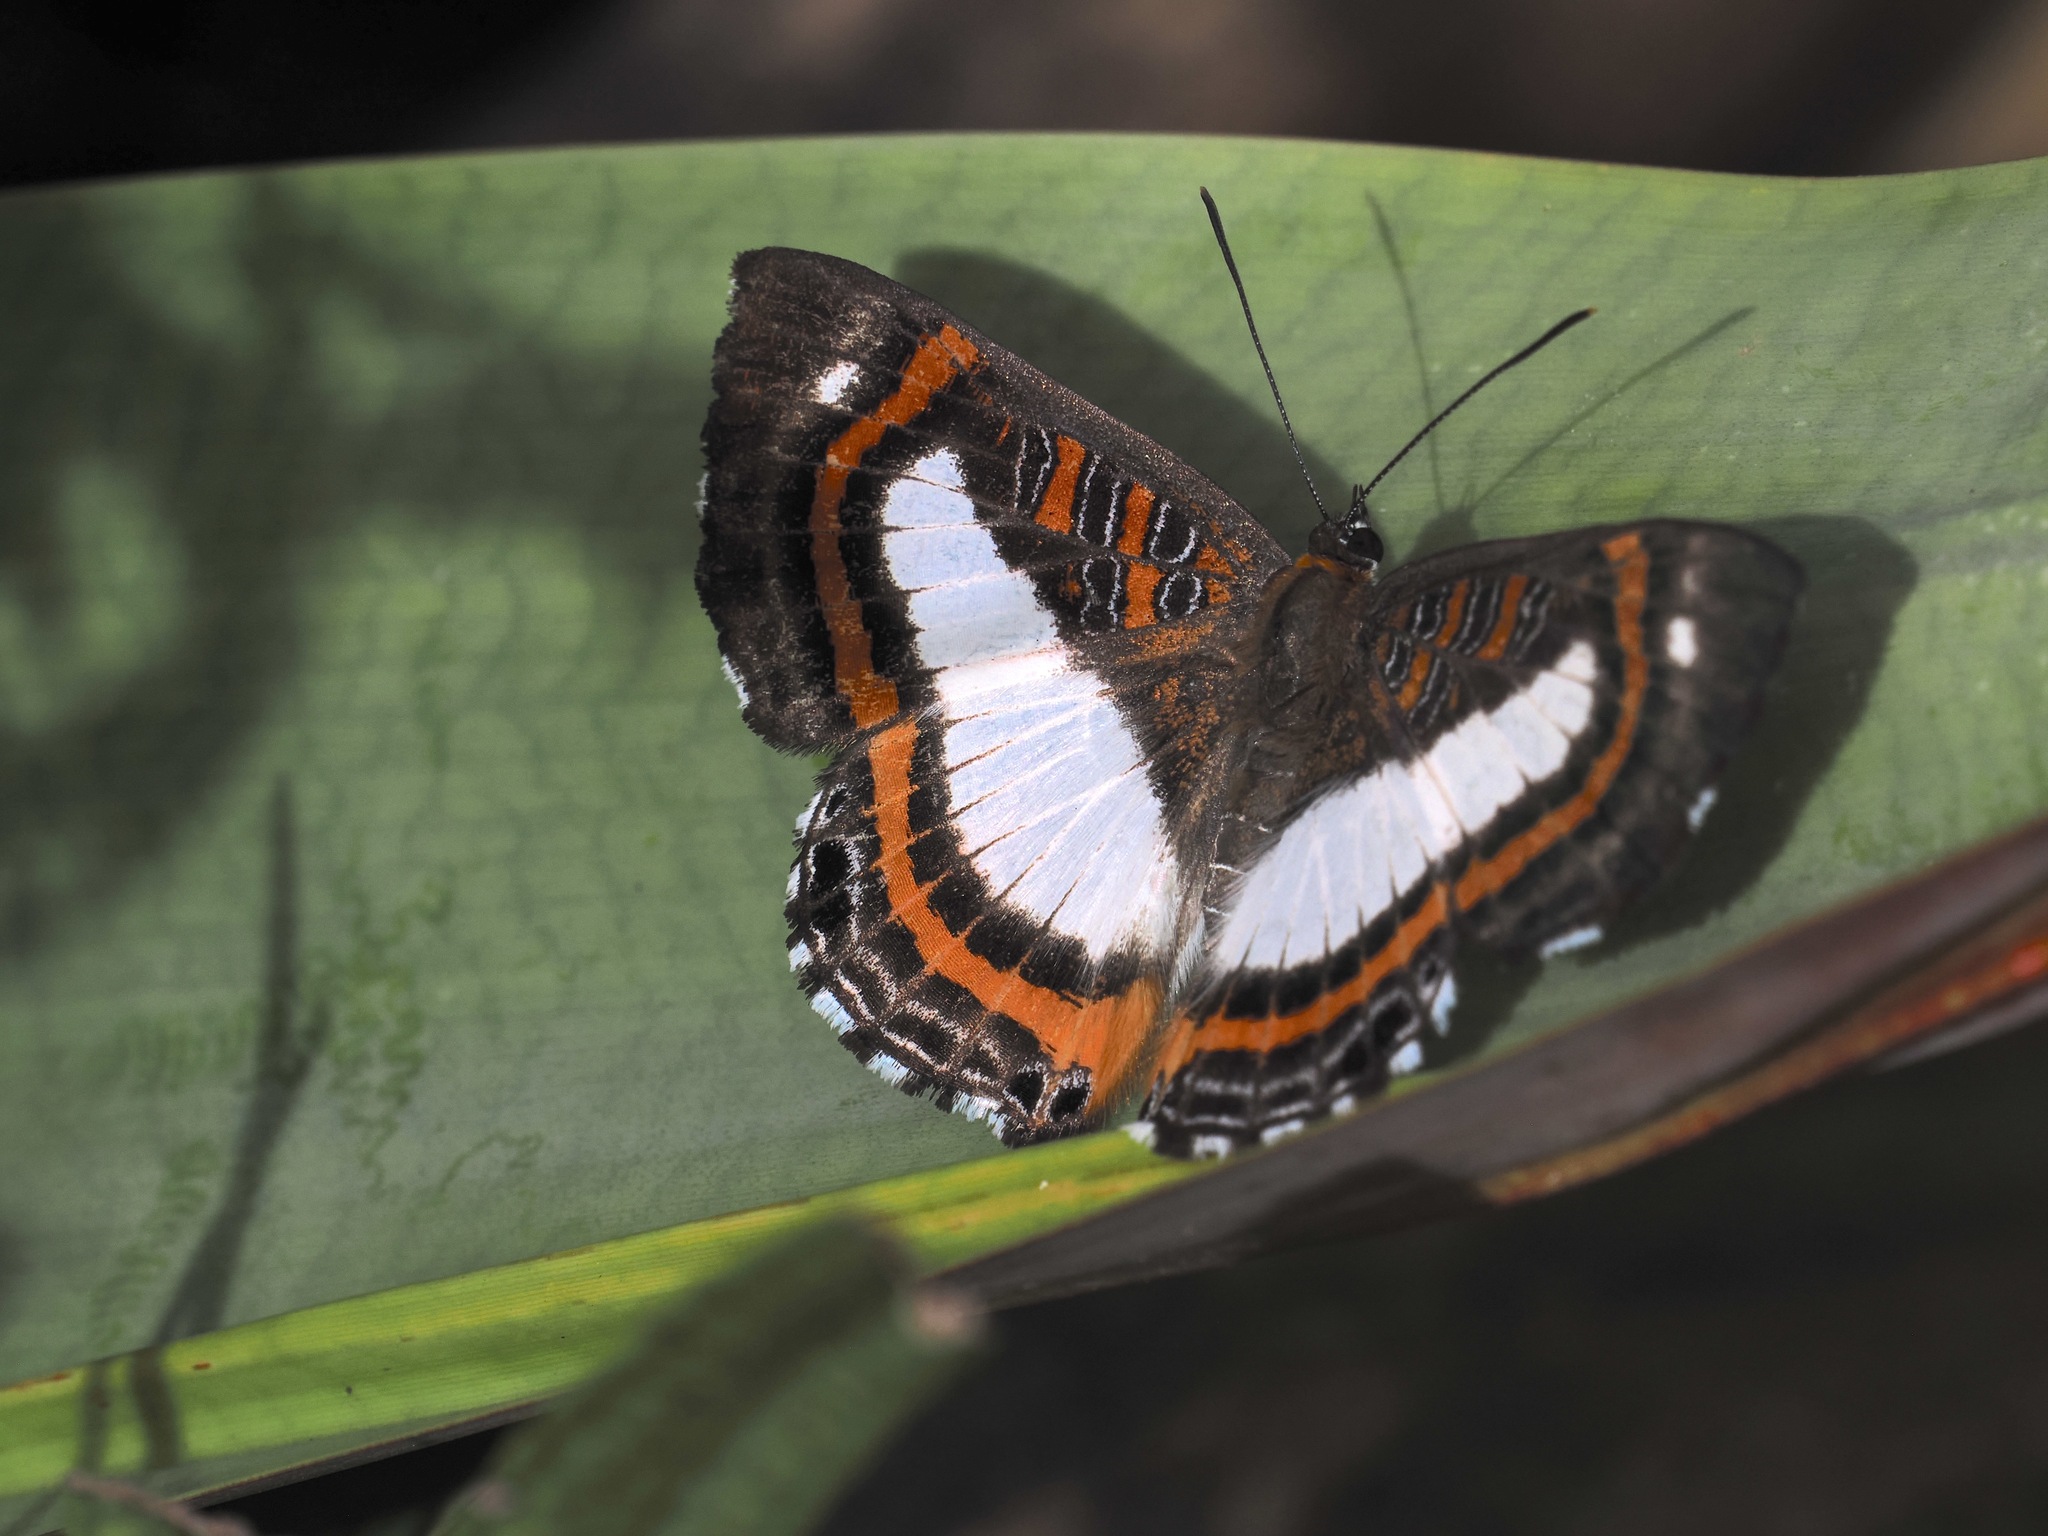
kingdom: Animalia
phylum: Arthropoda
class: Insecta
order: Lepidoptera
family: Riodinidae
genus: Synargis
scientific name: Synargis
